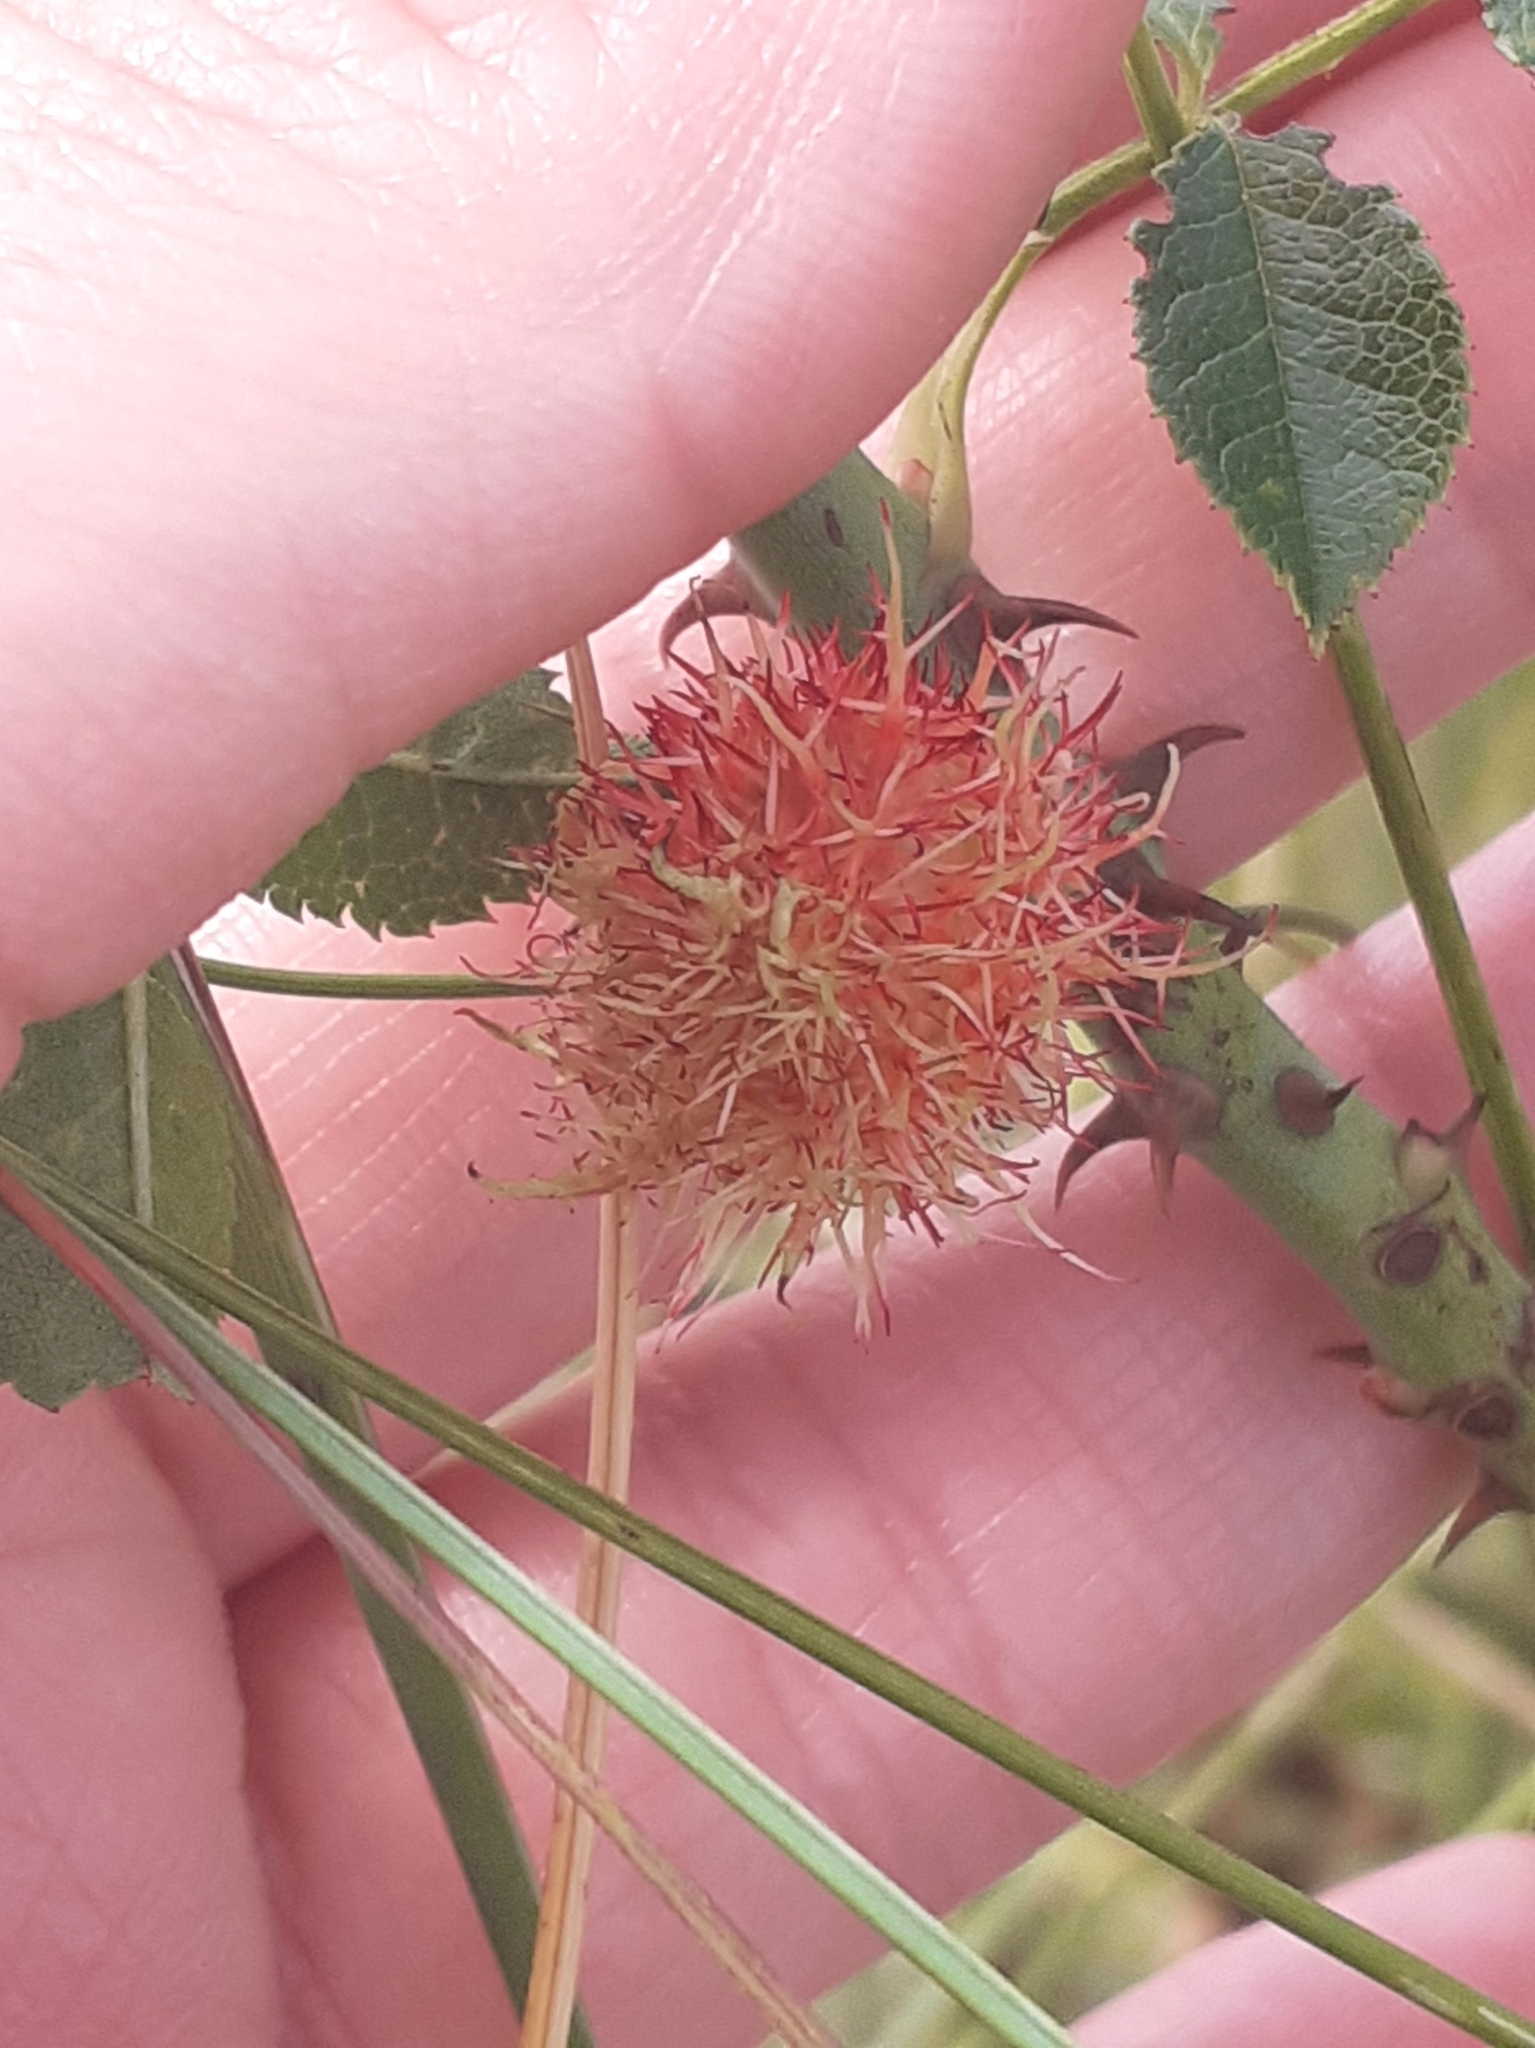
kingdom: Animalia
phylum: Arthropoda
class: Insecta
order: Hymenoptera
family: Cynipidae
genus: Diplolepis
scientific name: Diplolepis rosae
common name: Bedeguar gall
